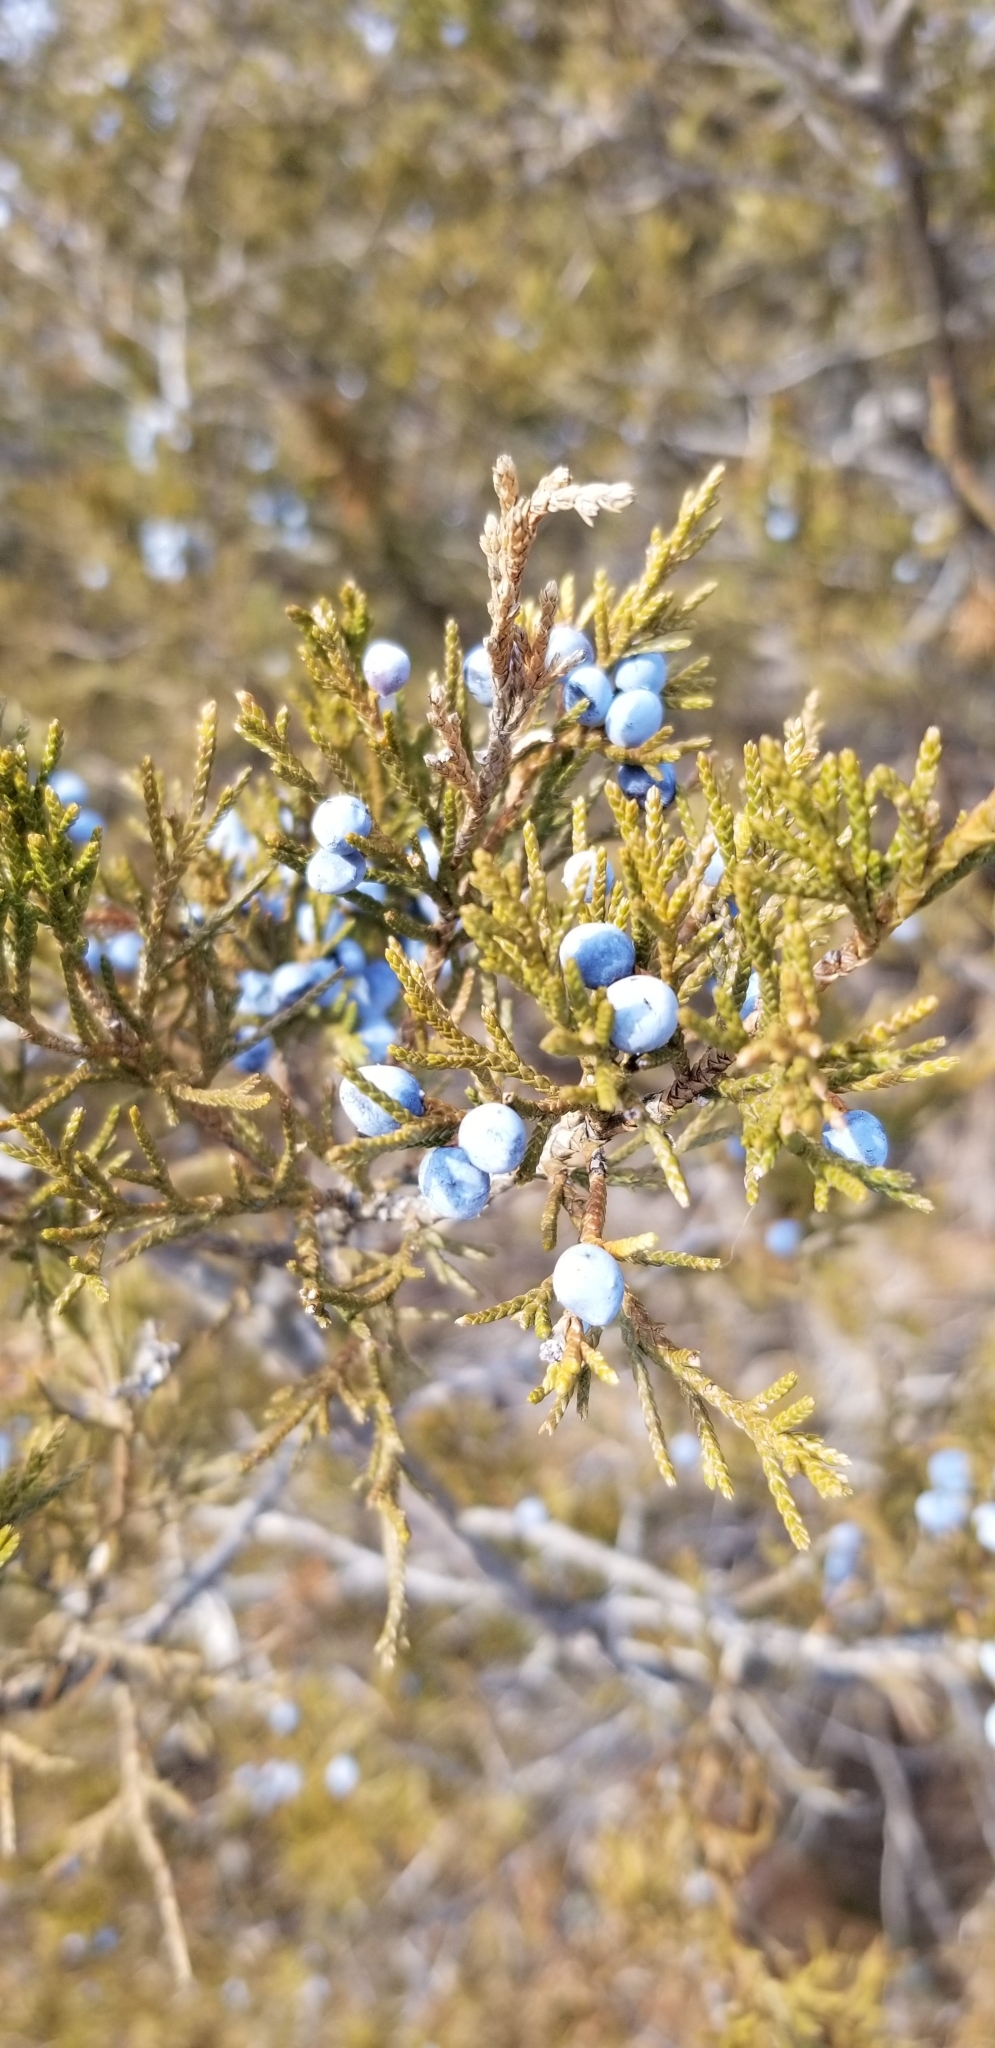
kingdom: Plantae
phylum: Tracheophyta
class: Pinopsida
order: Pinales
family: Cupressaceae
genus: Juniperus
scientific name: Juniperus virginiana
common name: Red juniper
